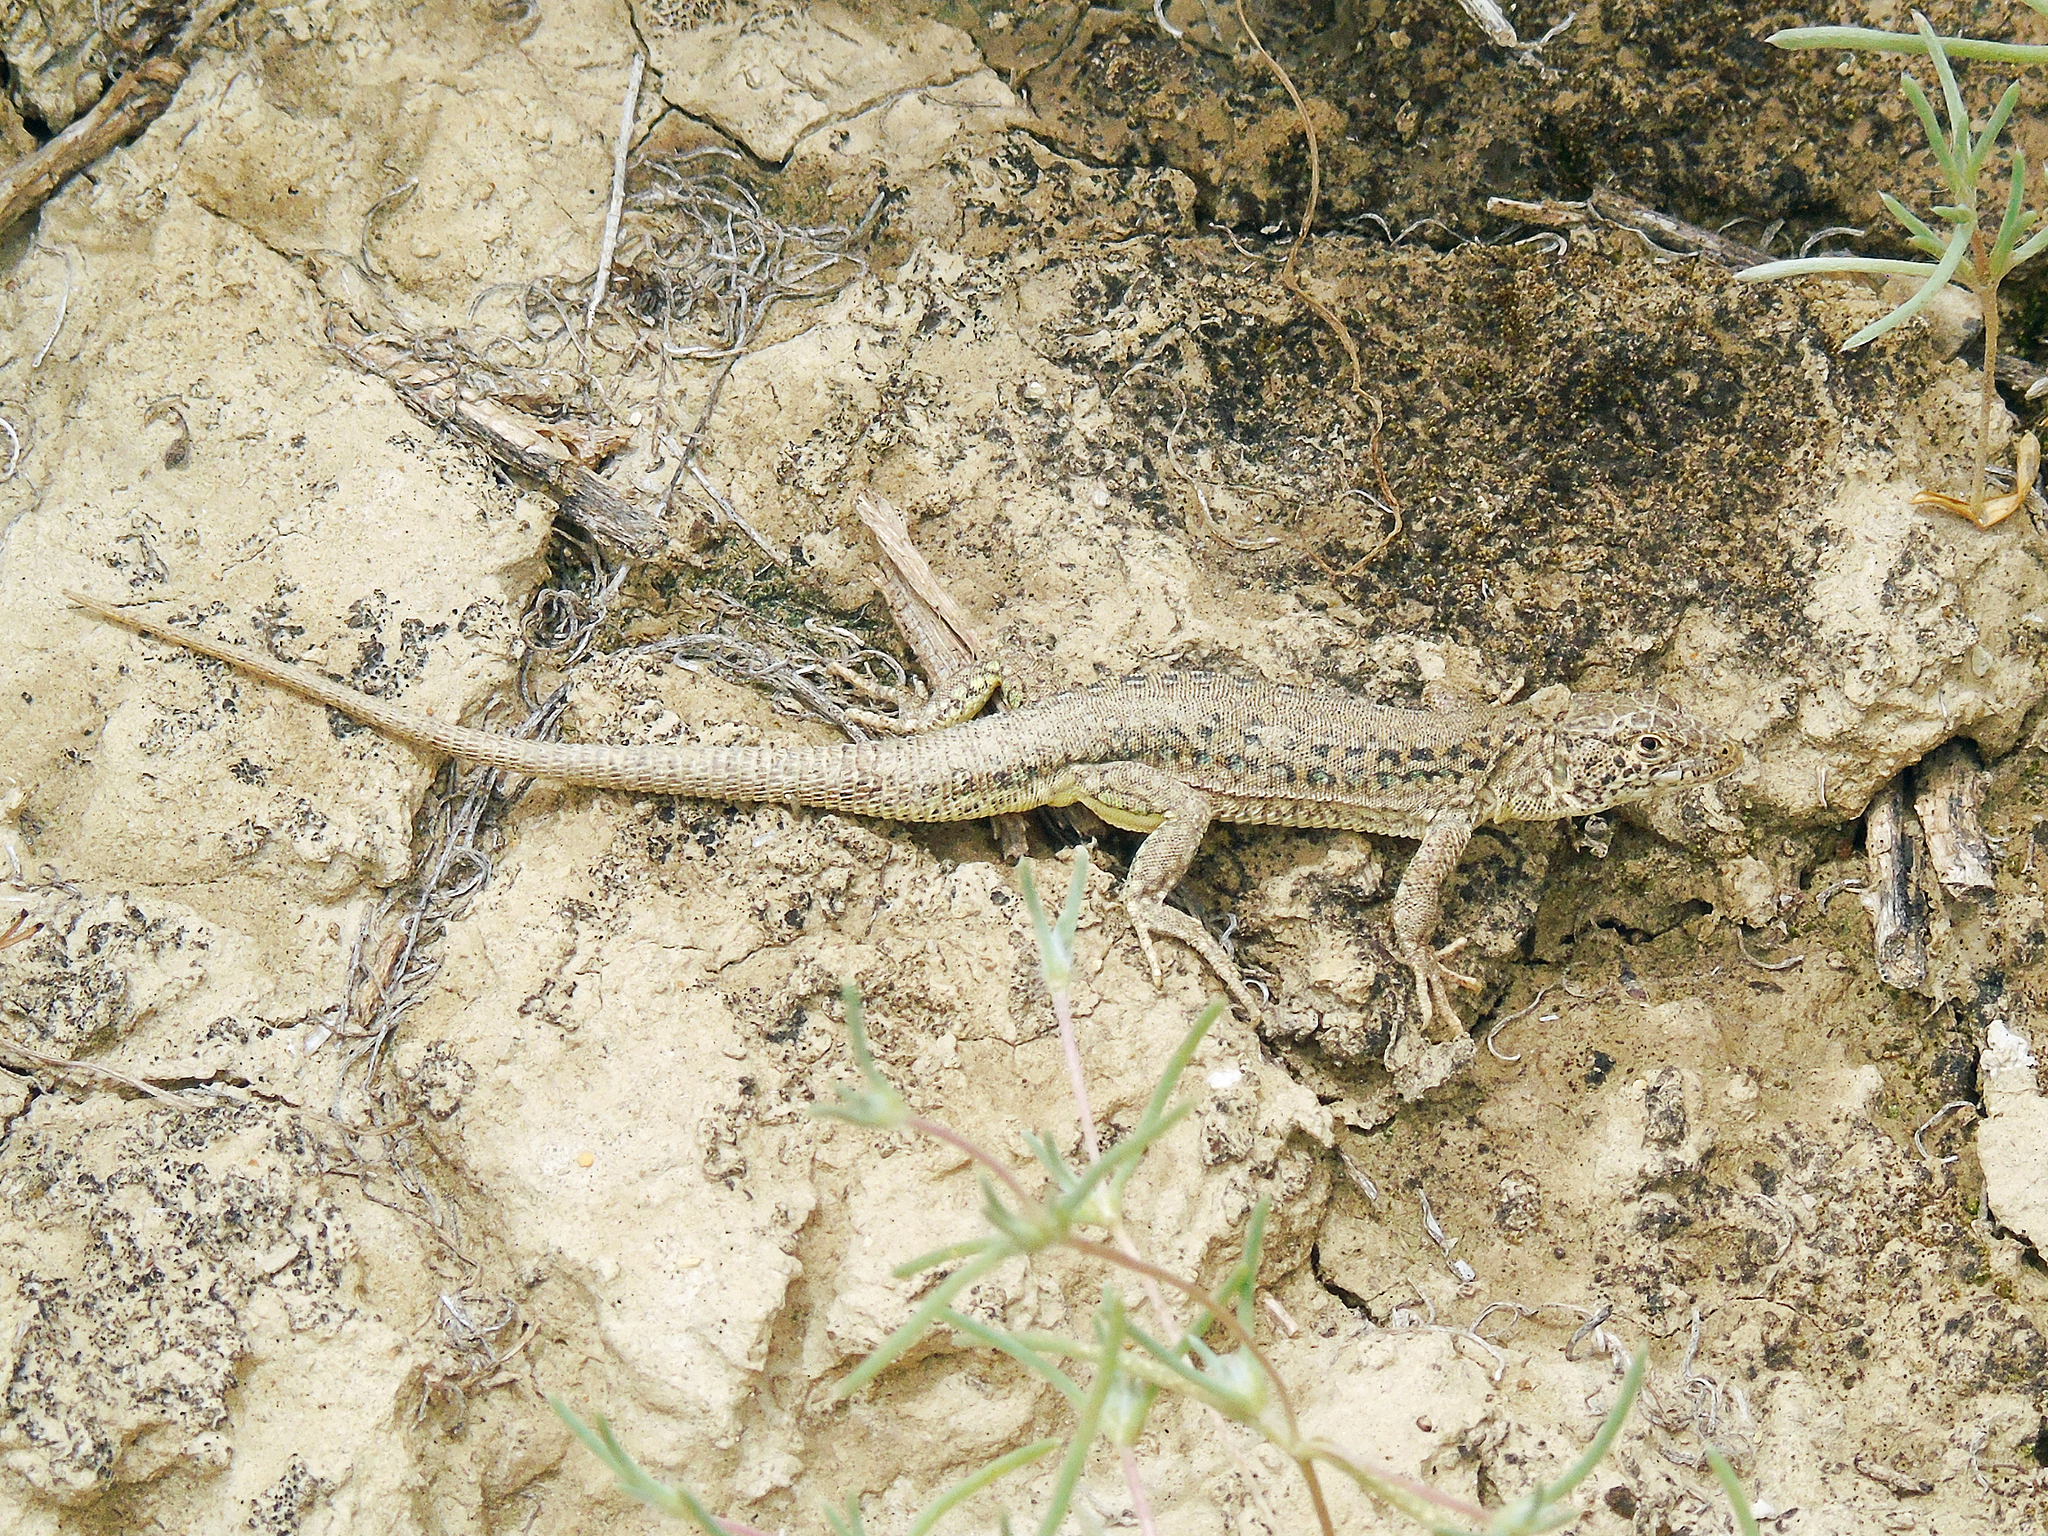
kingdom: Animalia
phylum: Chordata
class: Squamata
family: Lacertidae
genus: Eremias
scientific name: Eremias szczerbaki
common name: Szczerbak’s racerunner
